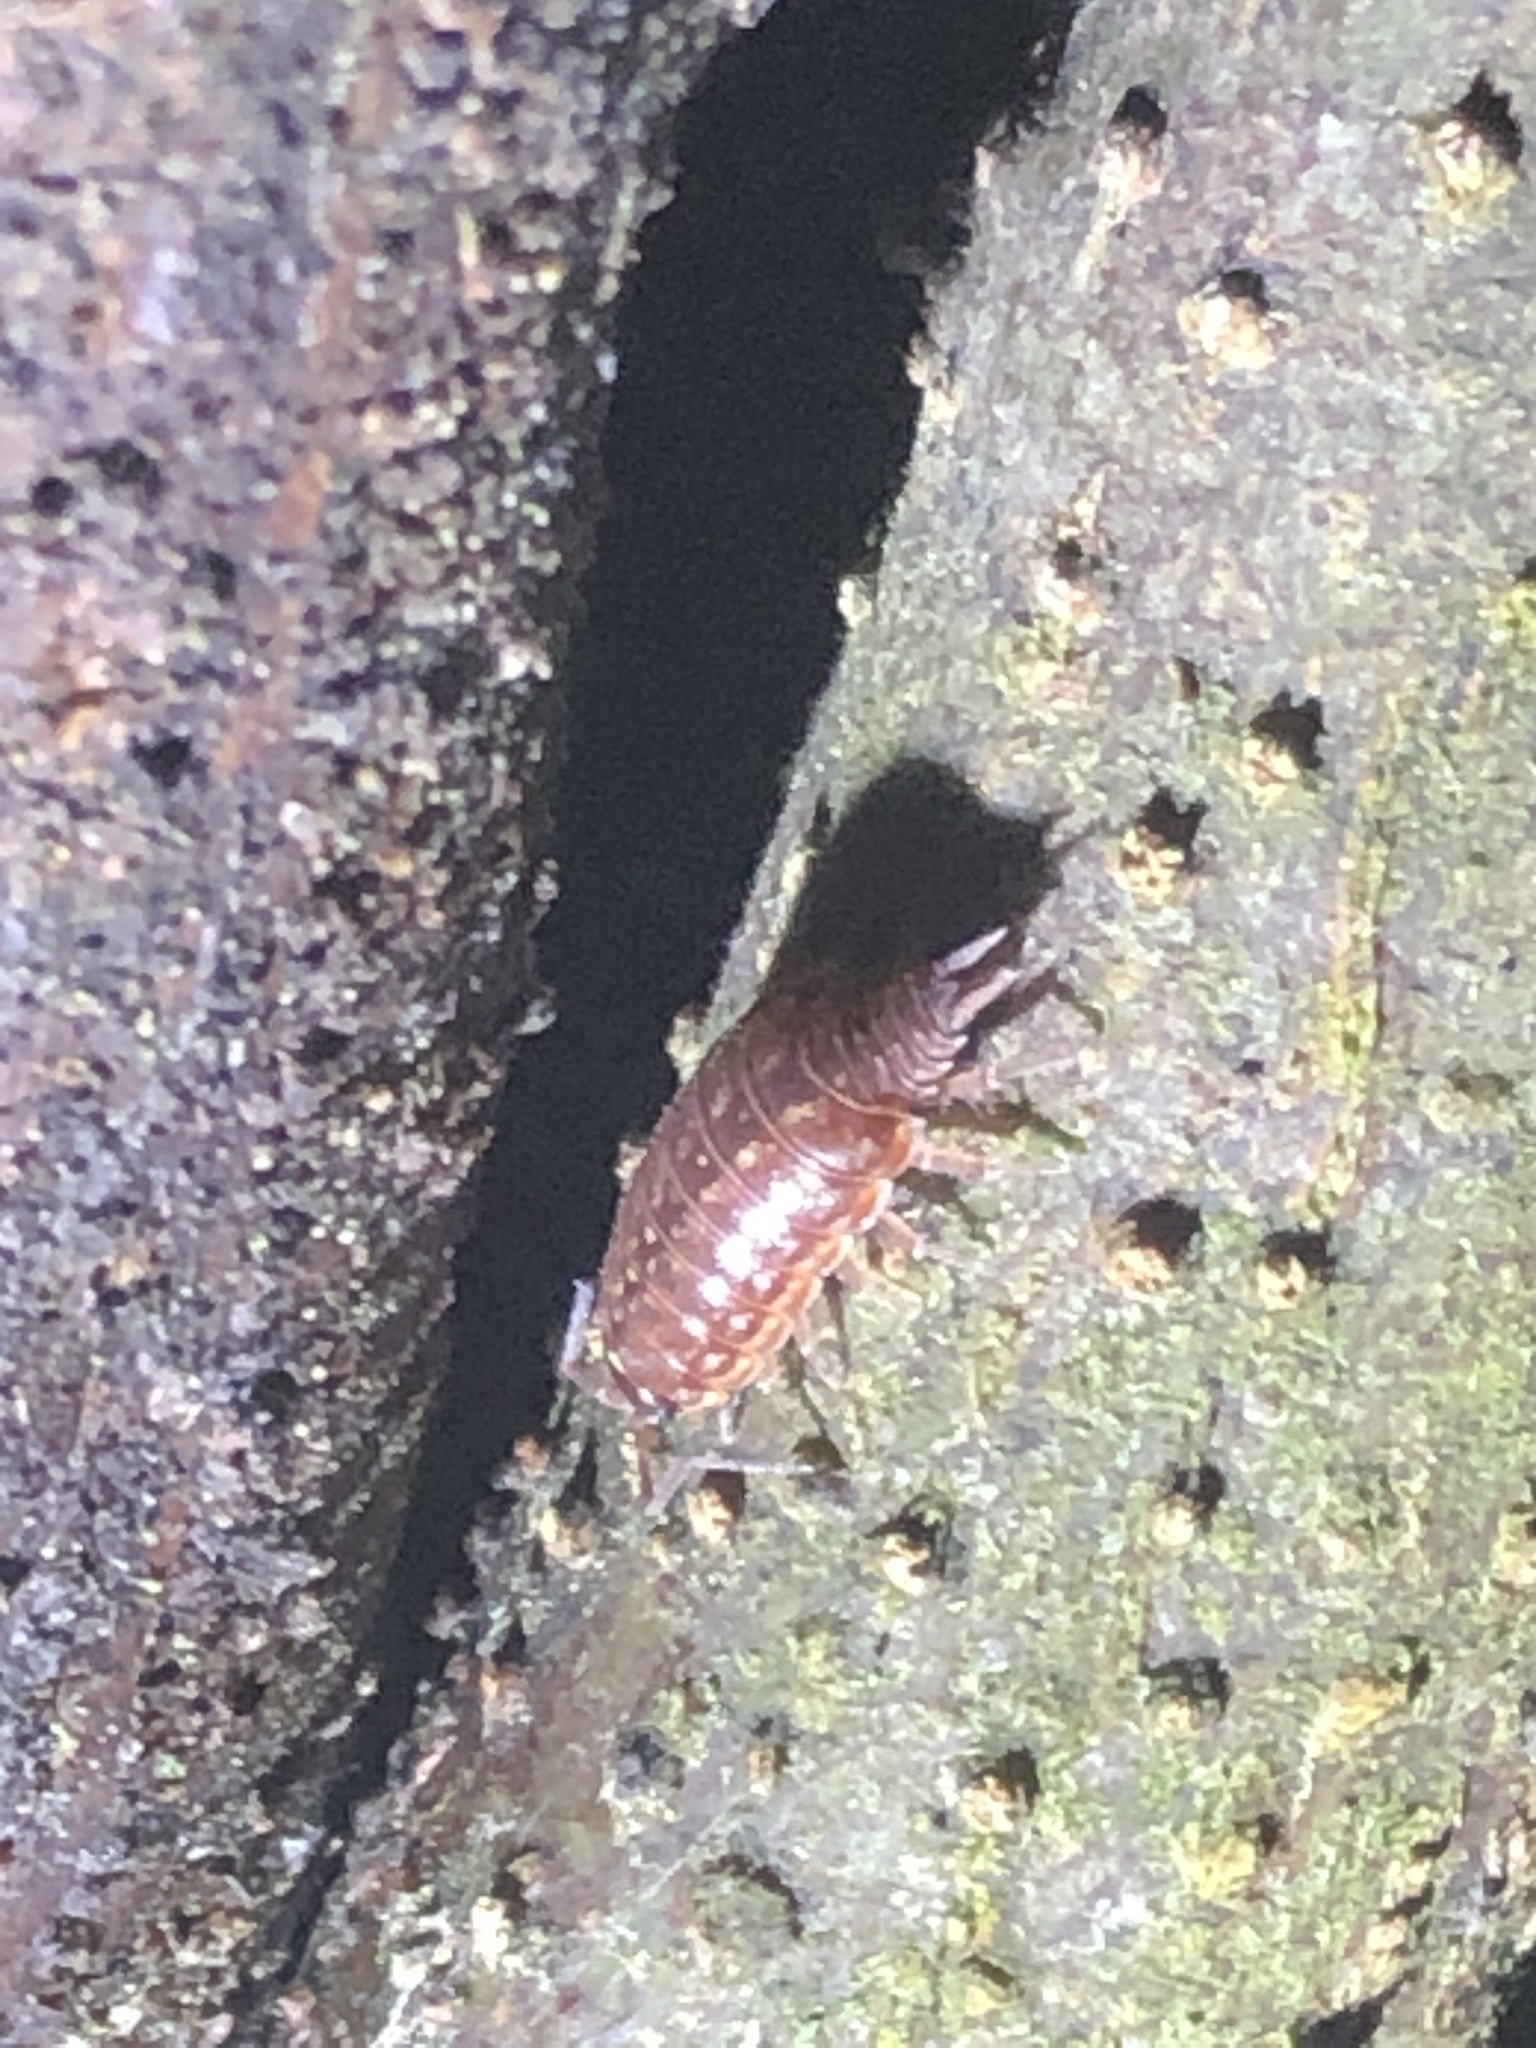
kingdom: Animalia
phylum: Arthropoda
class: Malacostraca
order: Isopoda
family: Philosciidae
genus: Philoscia
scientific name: Philoscia muscorum
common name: Common striped woodlouse
